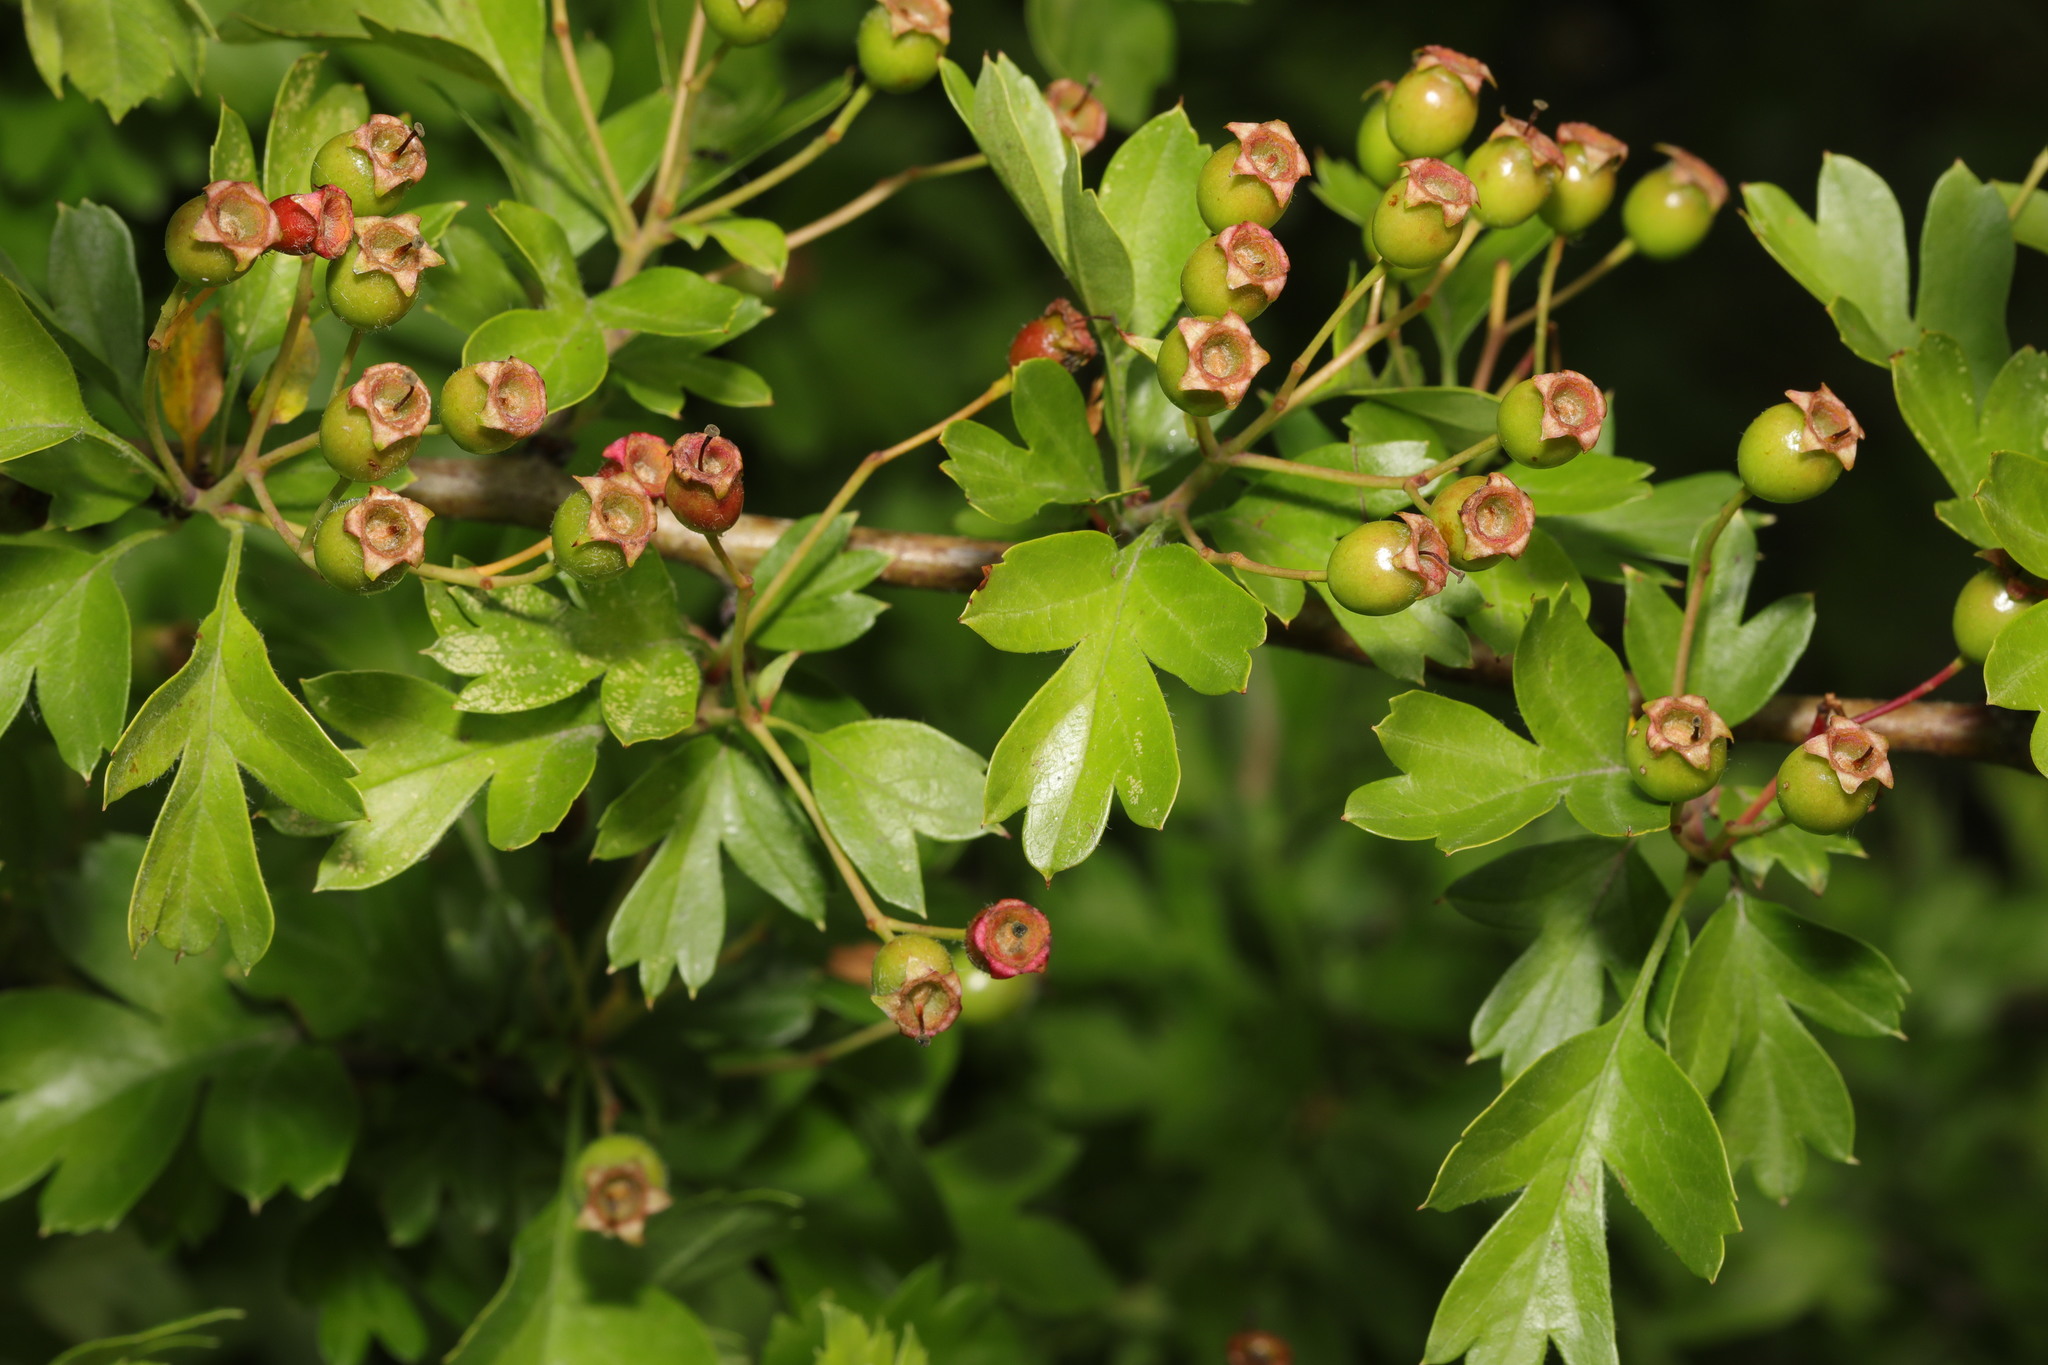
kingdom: Plantae
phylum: Tracheophyta
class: Magnoliopsida
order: Rosales
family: Rosaceae
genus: Crataegus
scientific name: Crataegus monogyna
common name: Hawthorn
